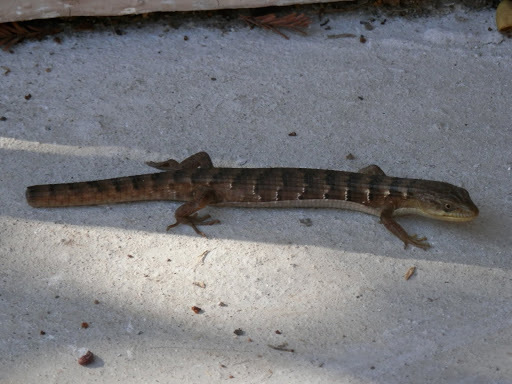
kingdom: Animalia
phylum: Chordata
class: Squamata
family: Anguidae
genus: Elgaria
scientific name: Elgaria multicarinata
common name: Southern alligator lizard
